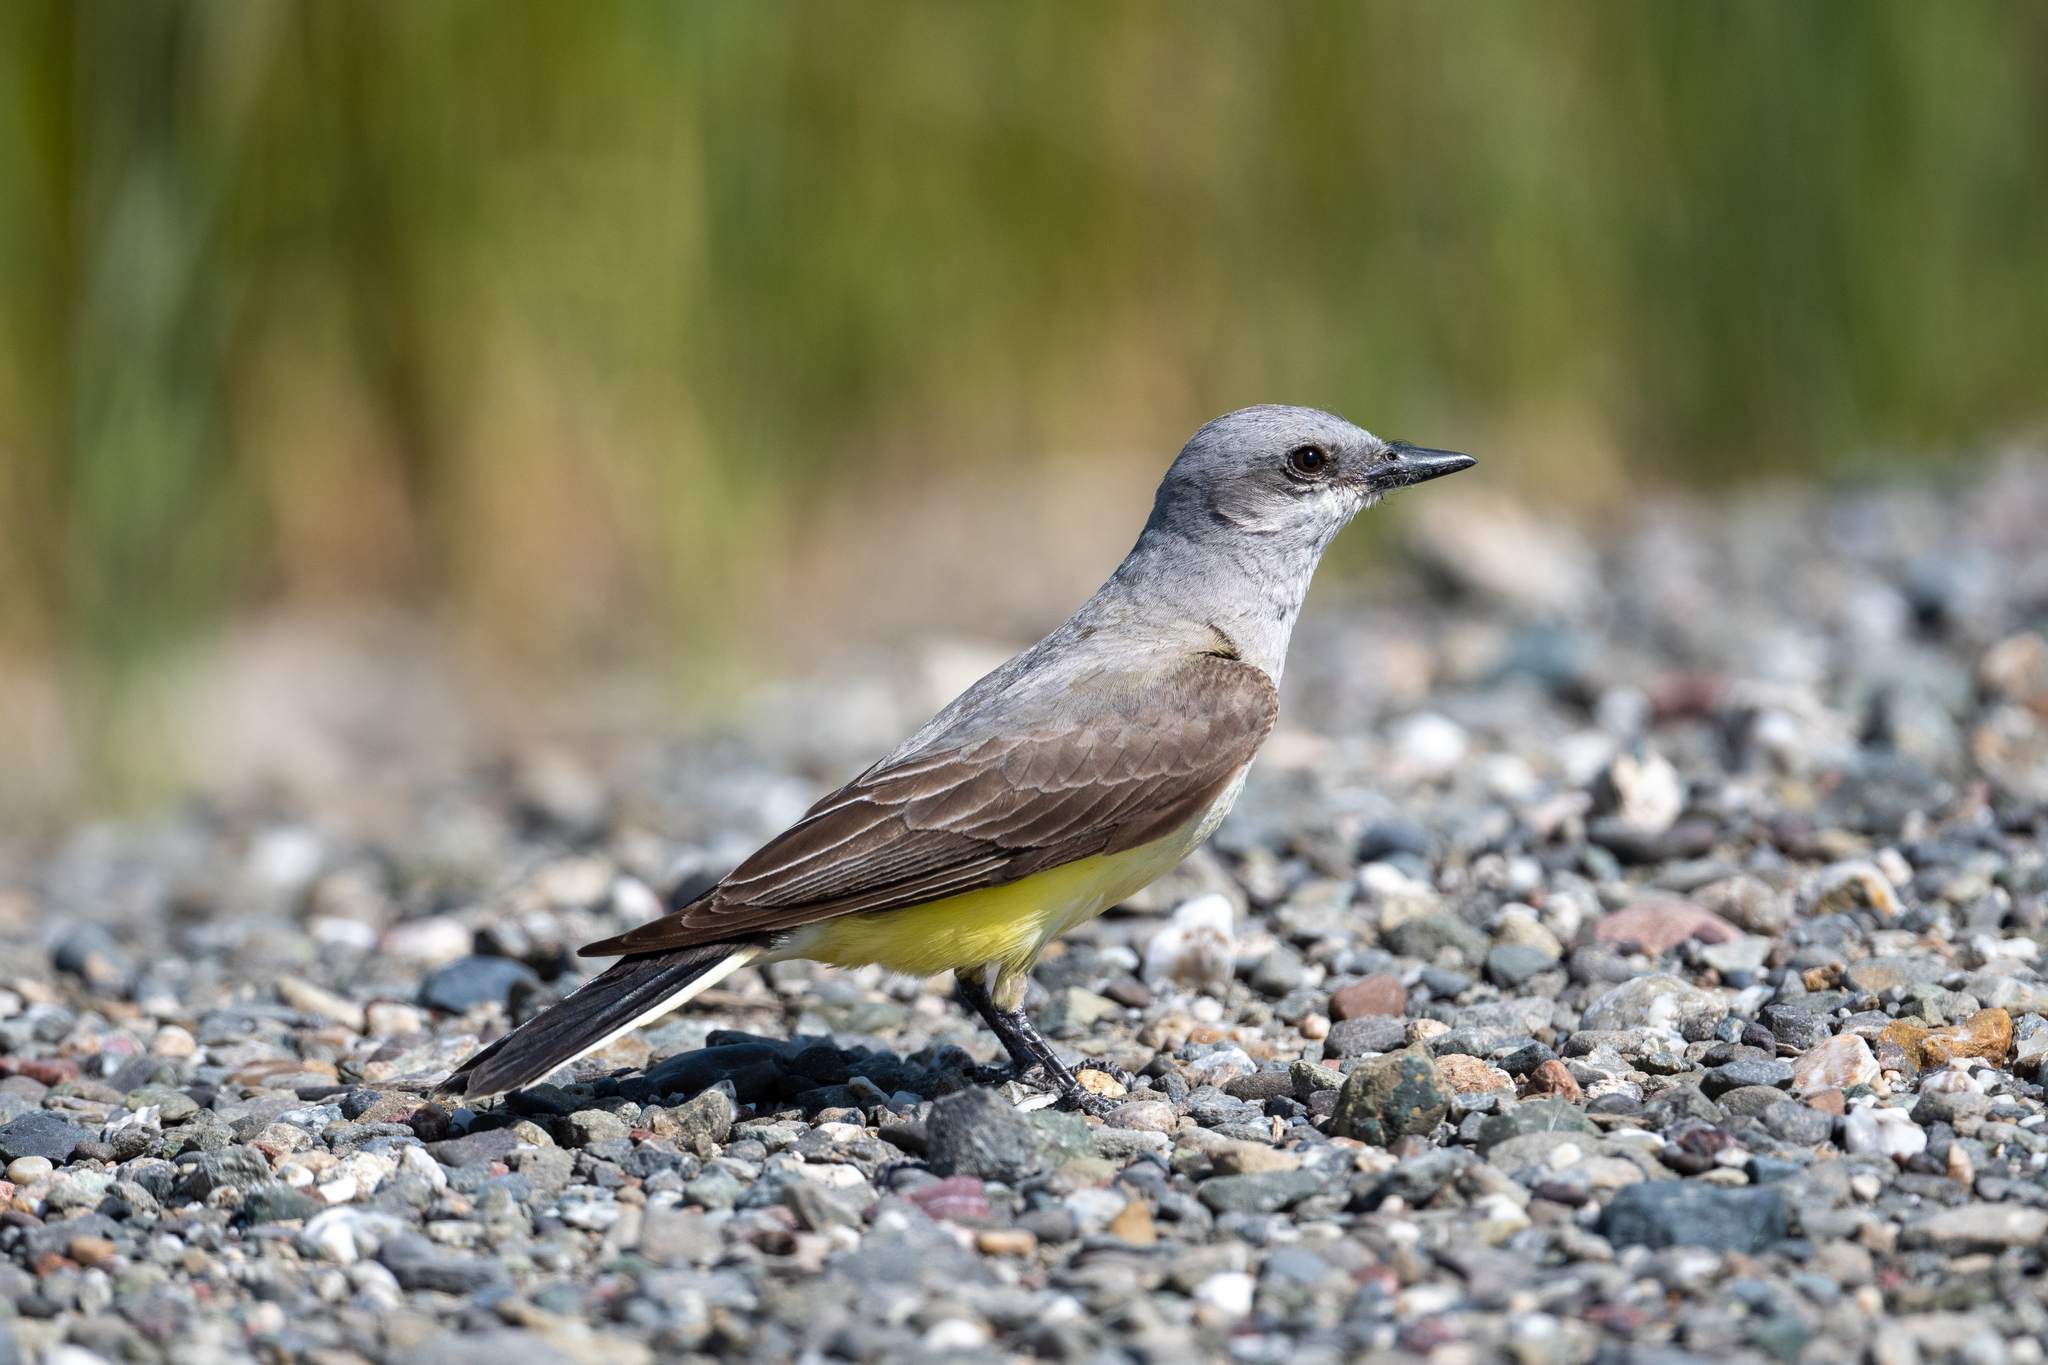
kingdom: Animalia
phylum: Chordata
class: Aves
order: Passeriformes
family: Tyrannidae
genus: Tyrannus
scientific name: Tyrannus verticalis
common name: Western kingbird
